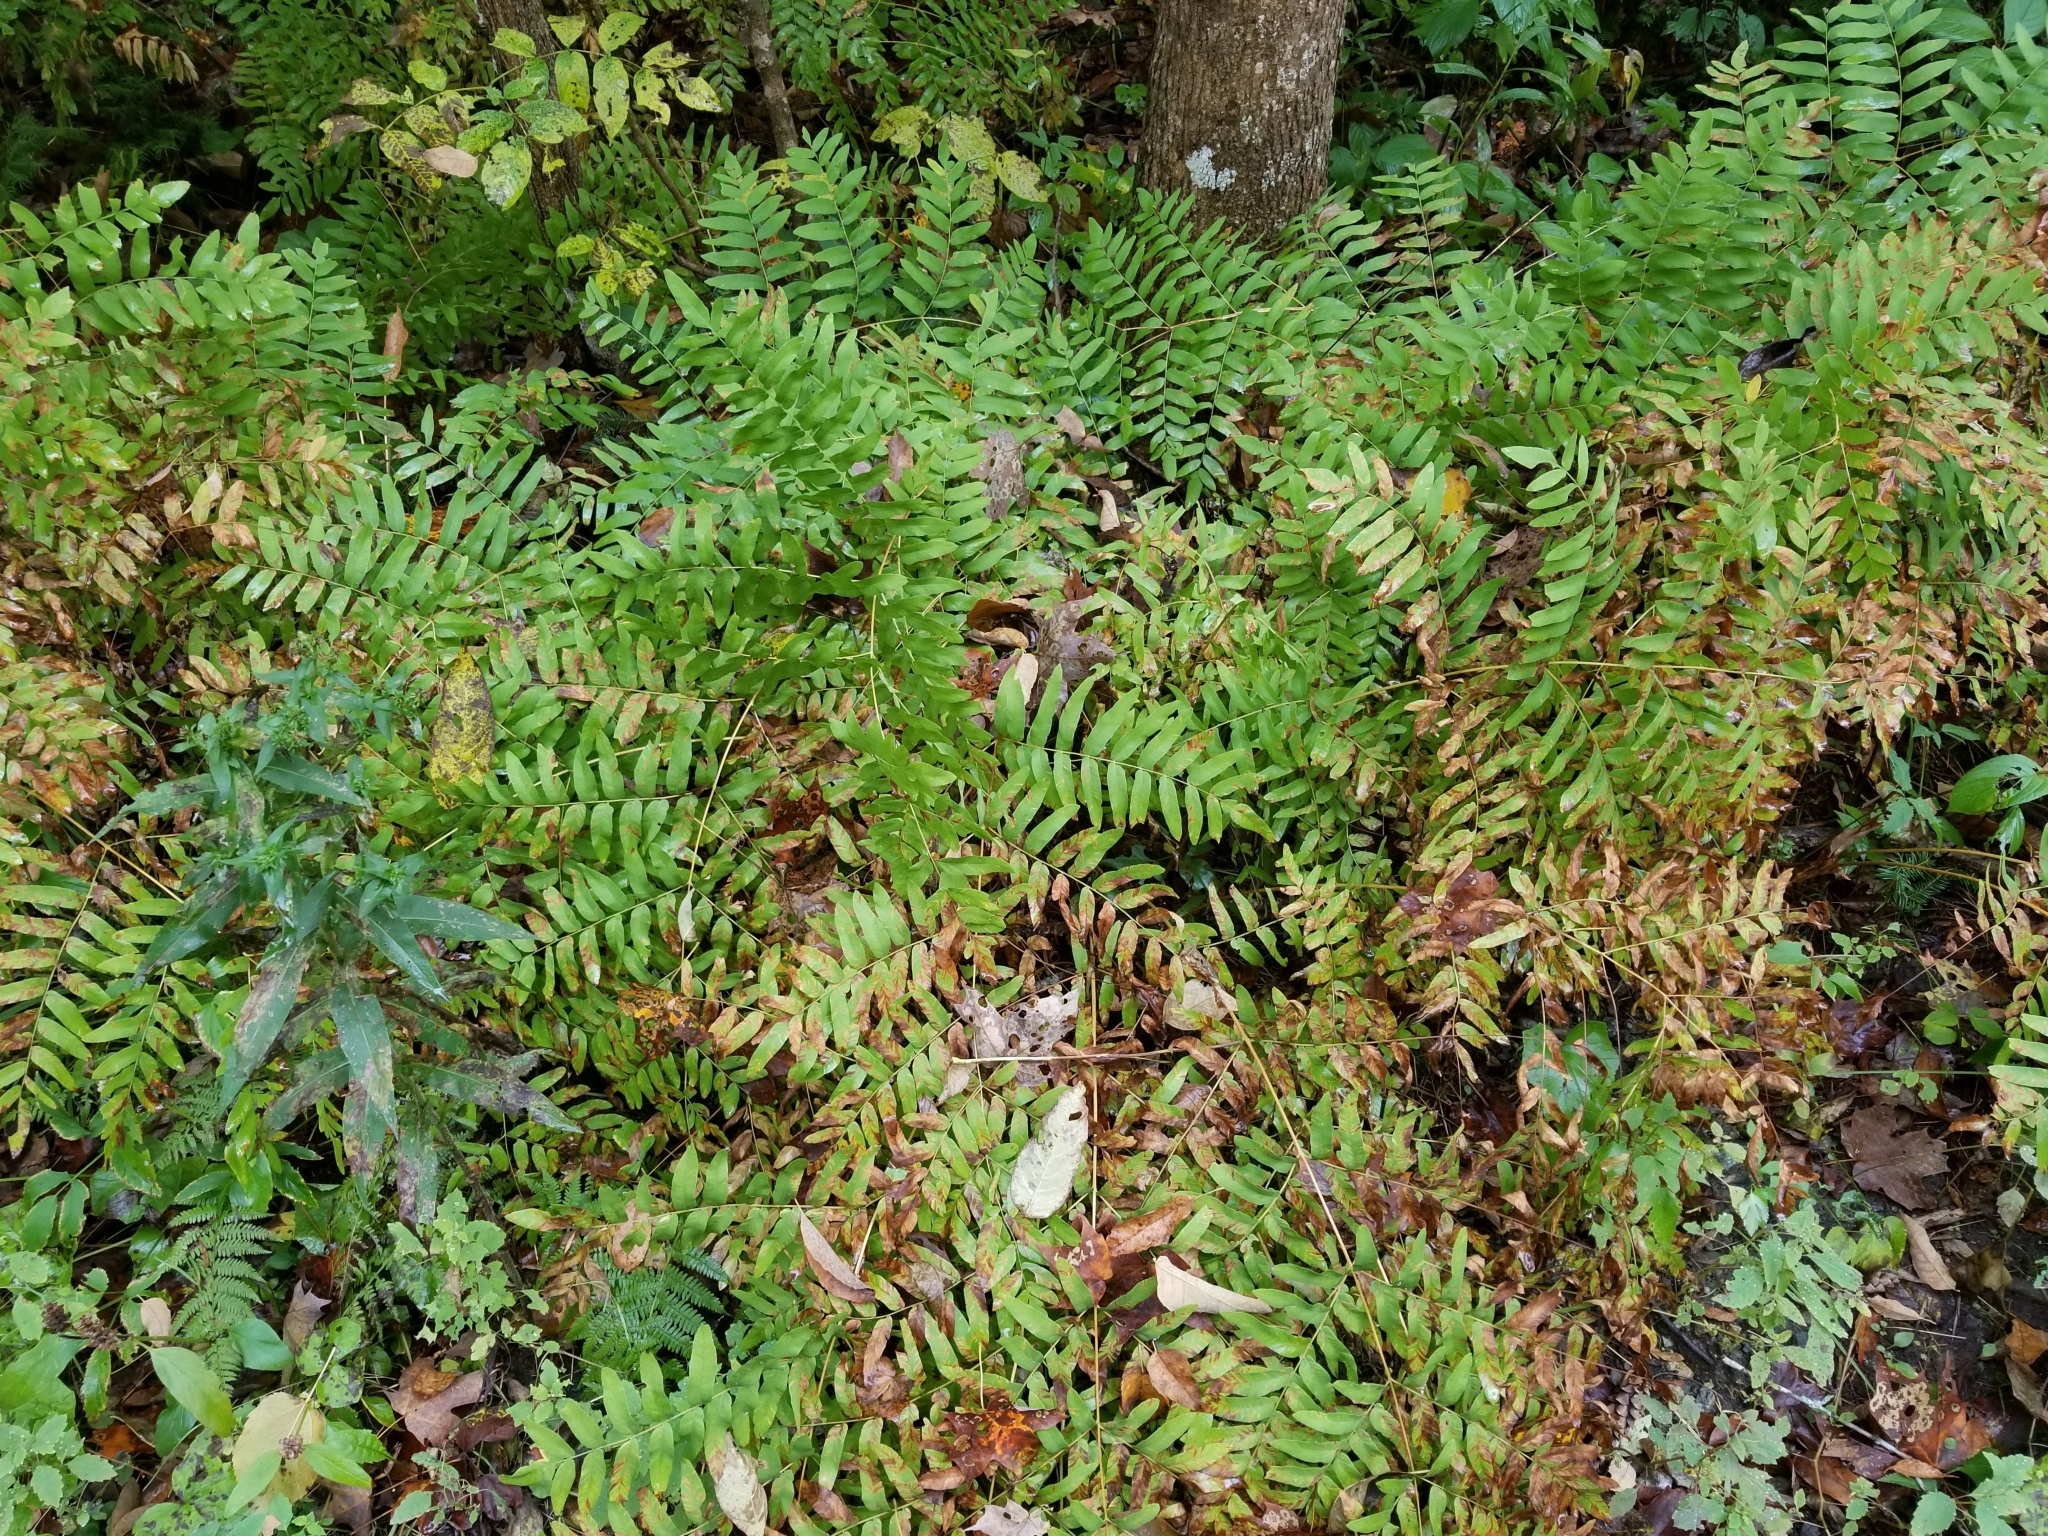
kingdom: Plantae
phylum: Tracheophyta
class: Polypodiopsida
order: Osmundales
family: Osmundaceae
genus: Osmunda
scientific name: Osmunda spectabilis
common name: American royal fern
